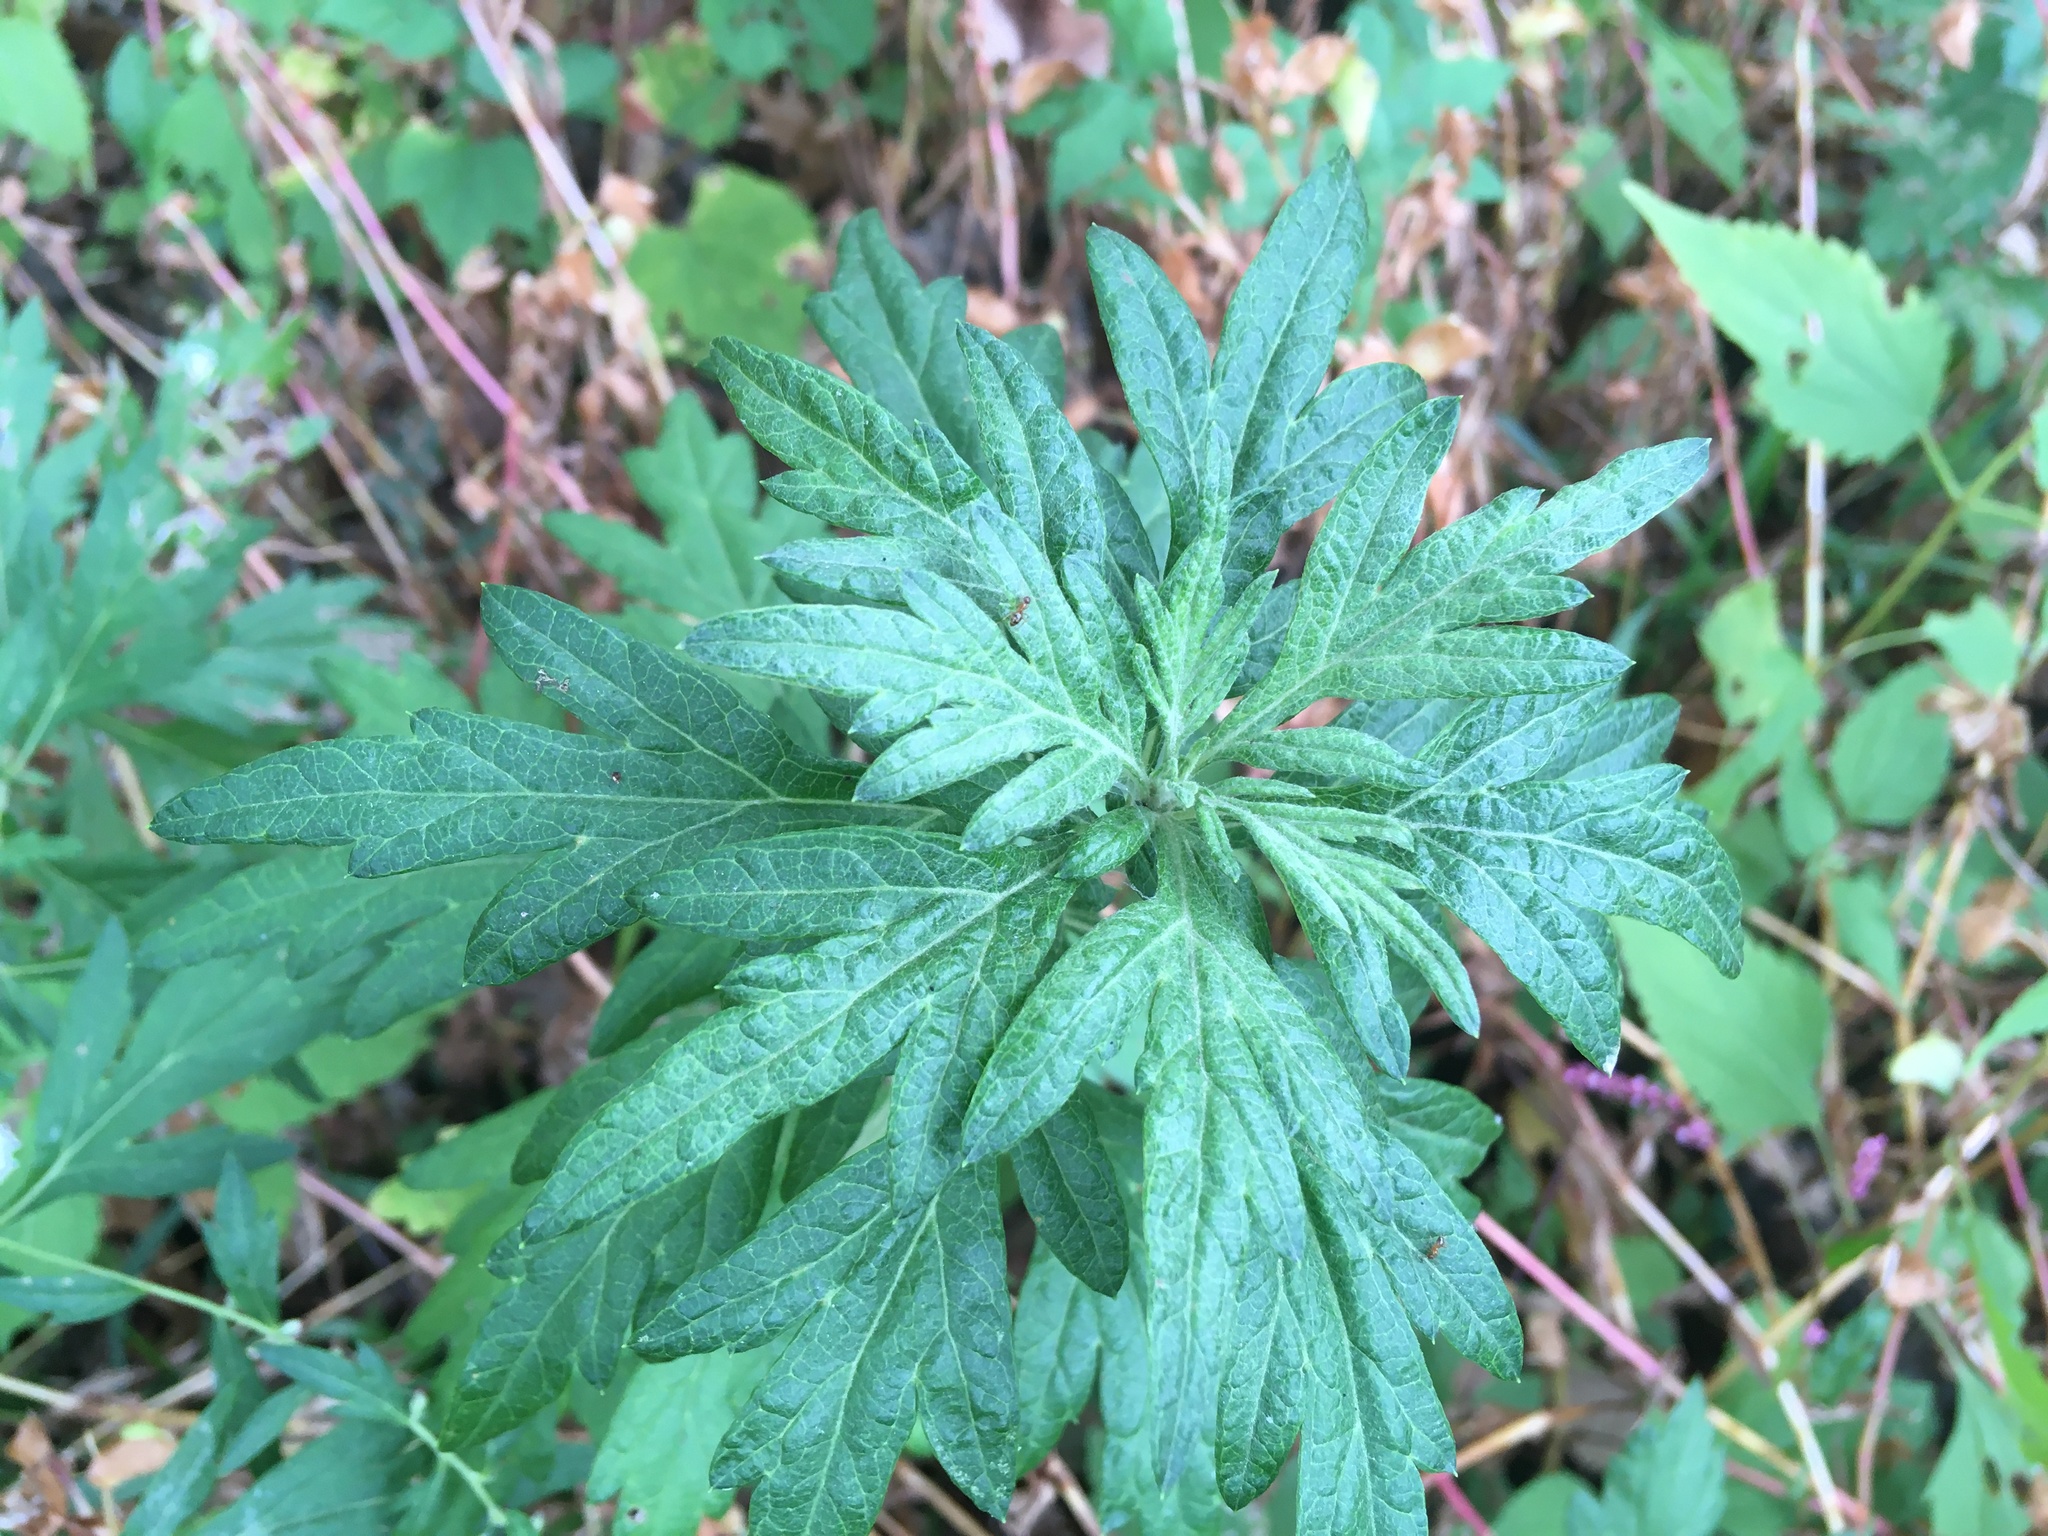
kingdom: Plantae
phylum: Tracheophyta
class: Magnoliopsida
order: Asterales
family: Asteraceae
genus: Artemisia
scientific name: Artemisia vulgaris
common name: Mugwort
